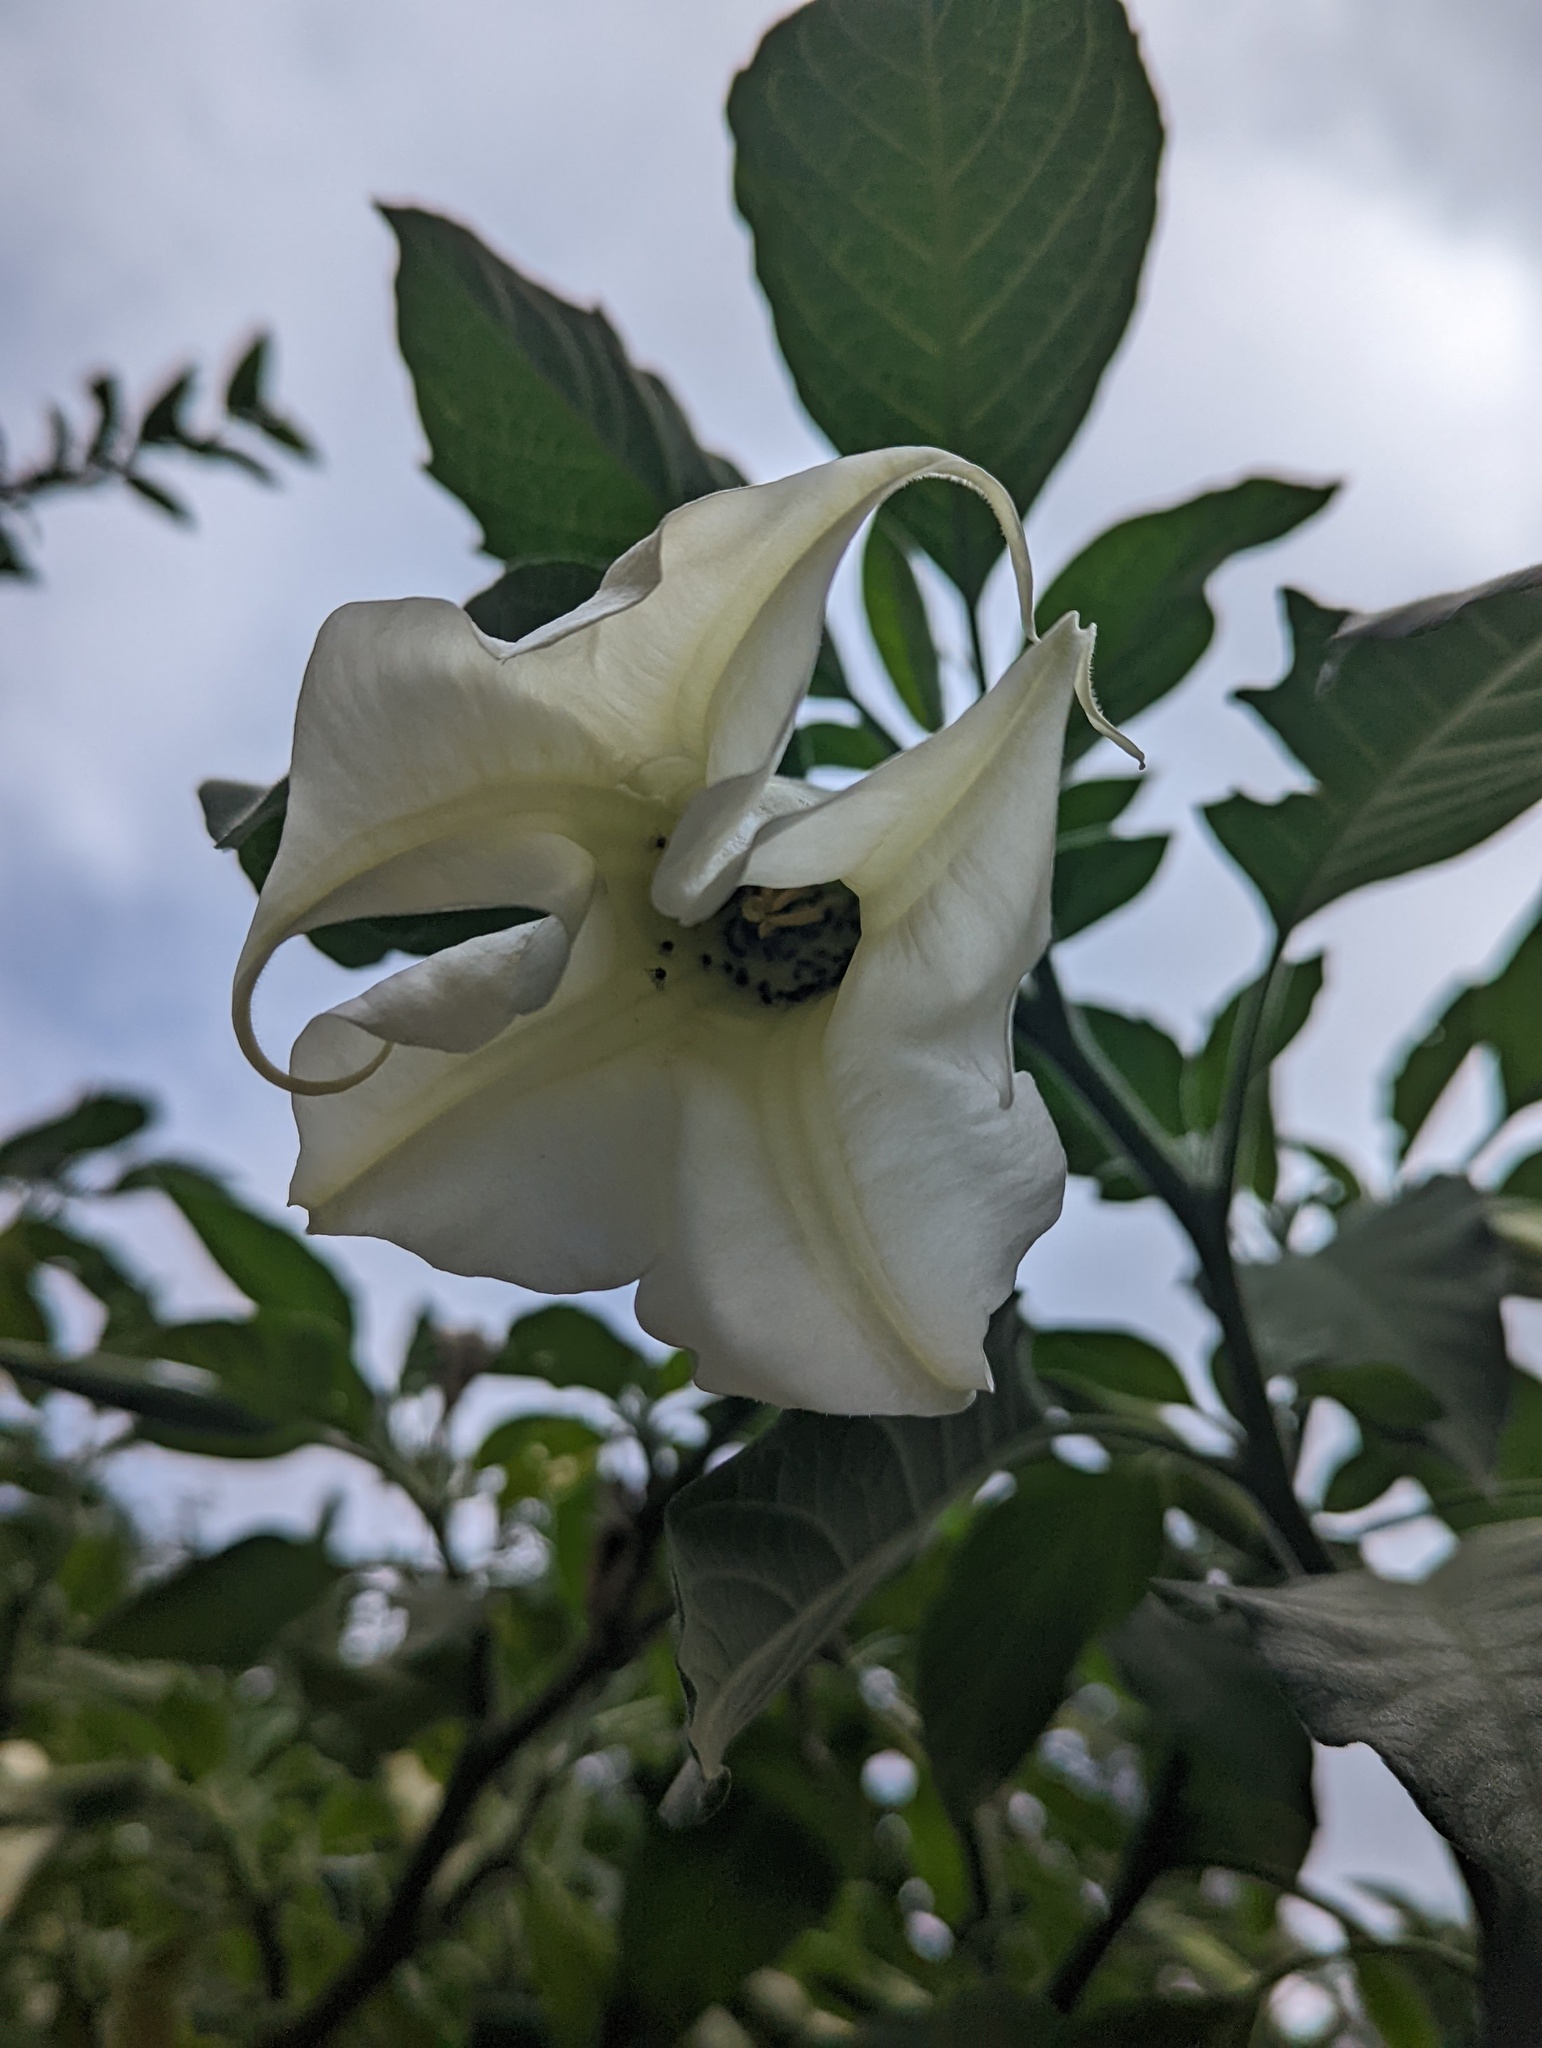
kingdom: Plantae
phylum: Tracheophyta
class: Magnoliopsida
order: Solanales
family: Solanaceae
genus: Brugmansia
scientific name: Brugmansia arborea
